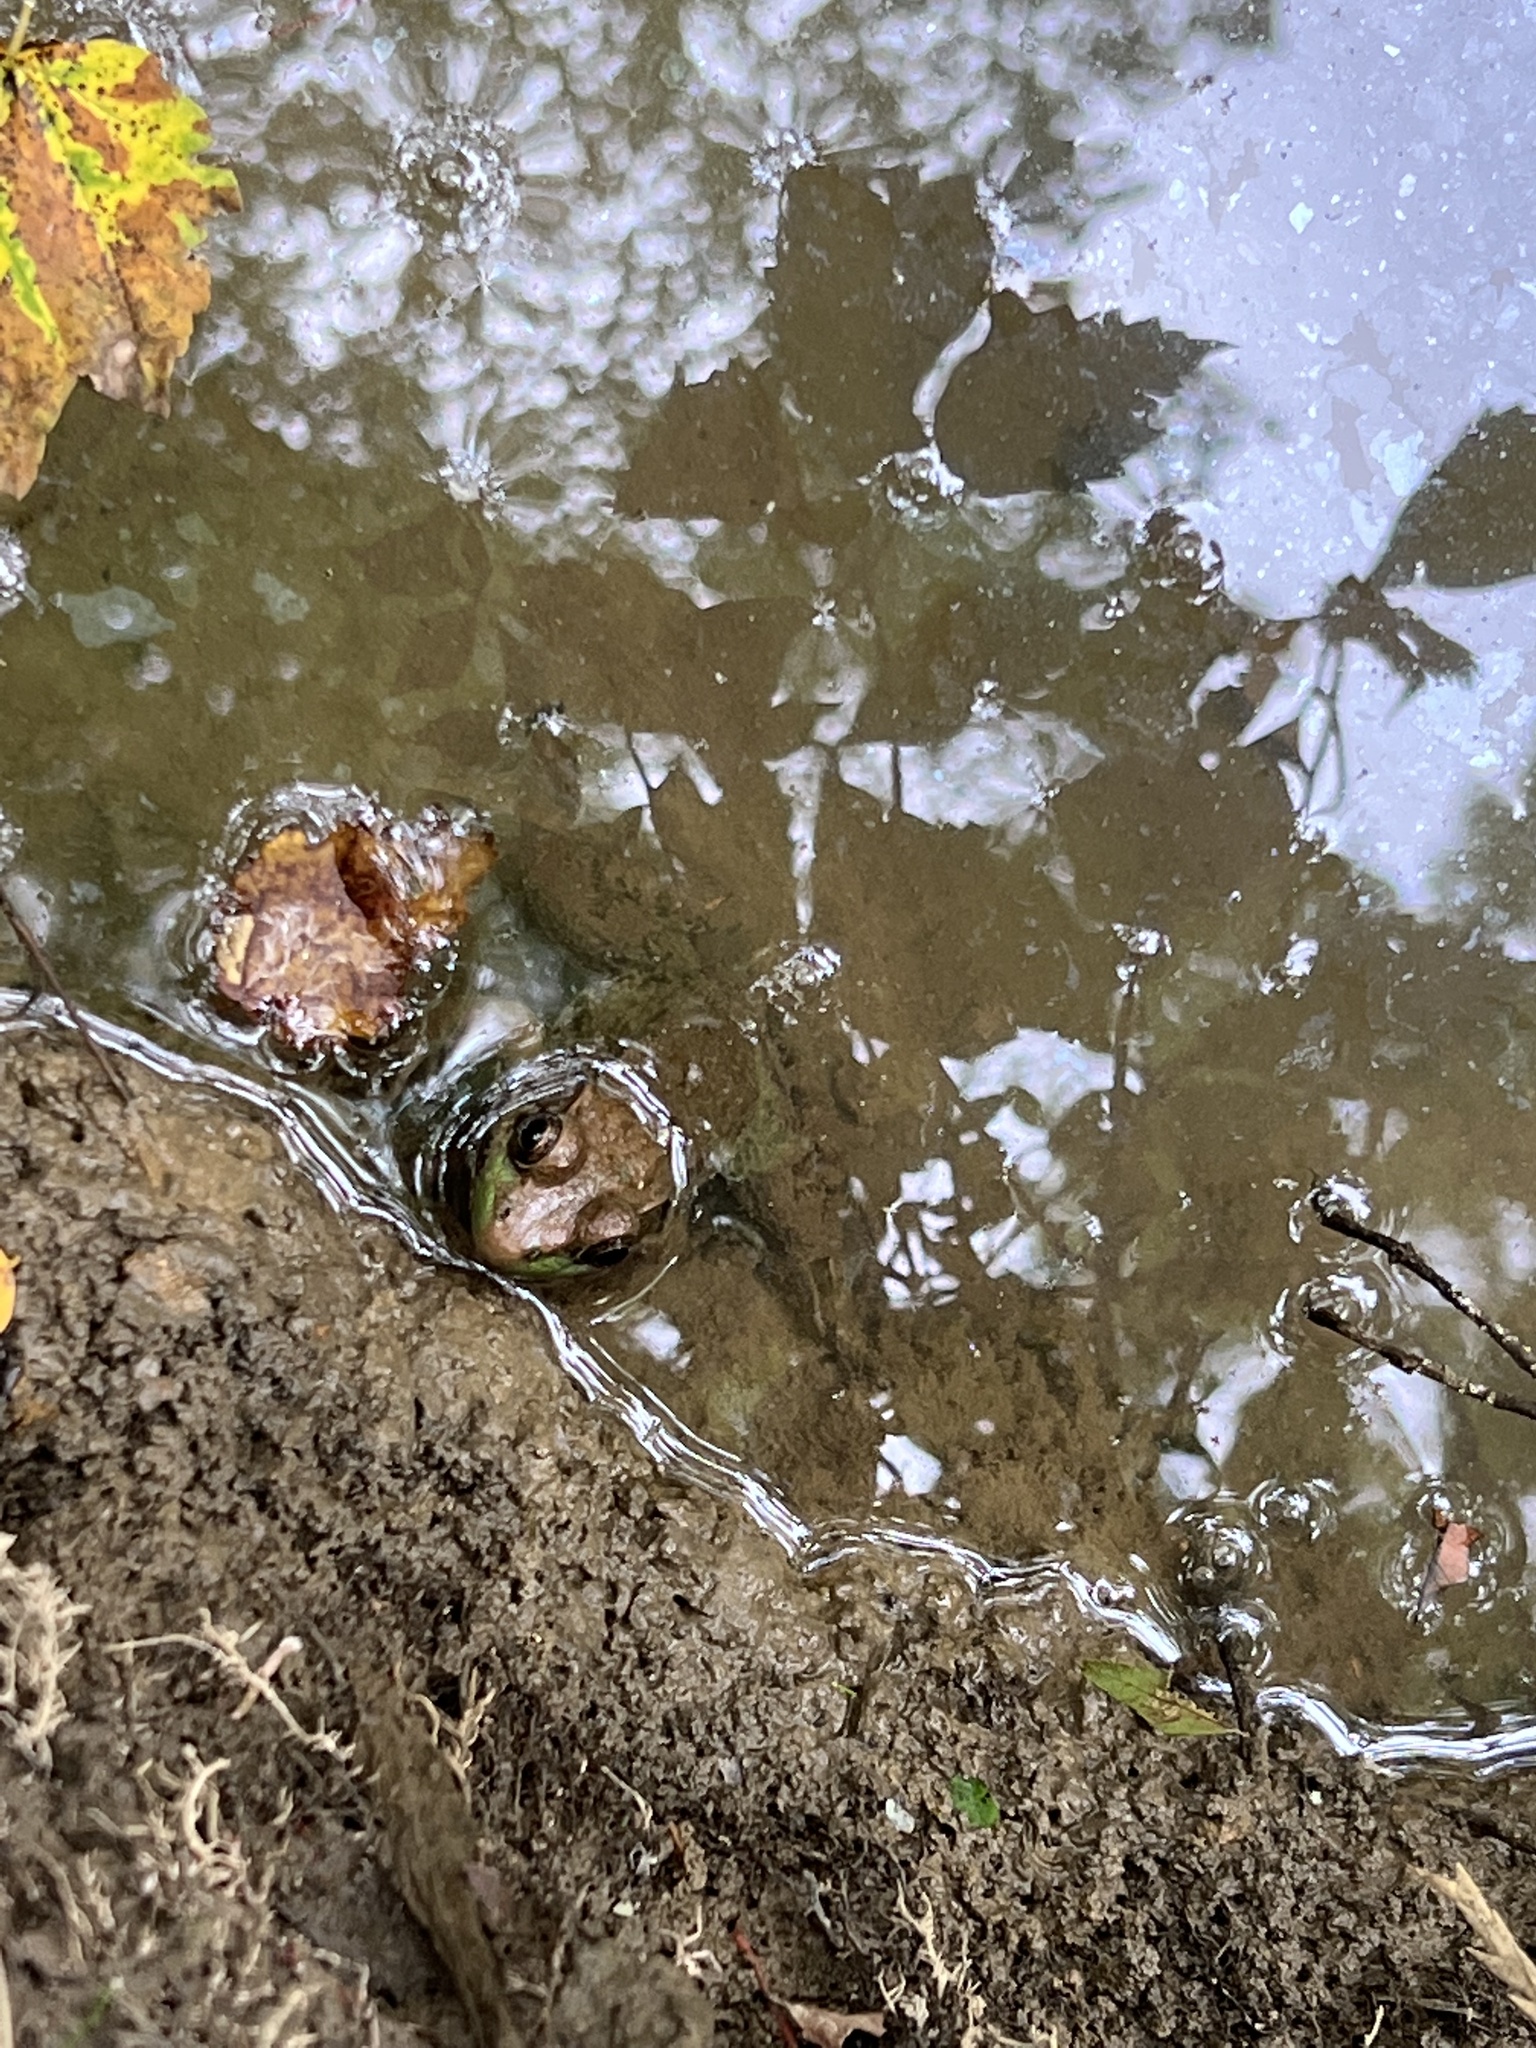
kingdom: Animalia
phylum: Chordata
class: Amphibia
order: Anura
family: Ranidae
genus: Lithobates
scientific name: Lithobates clamitans
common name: Green frog
